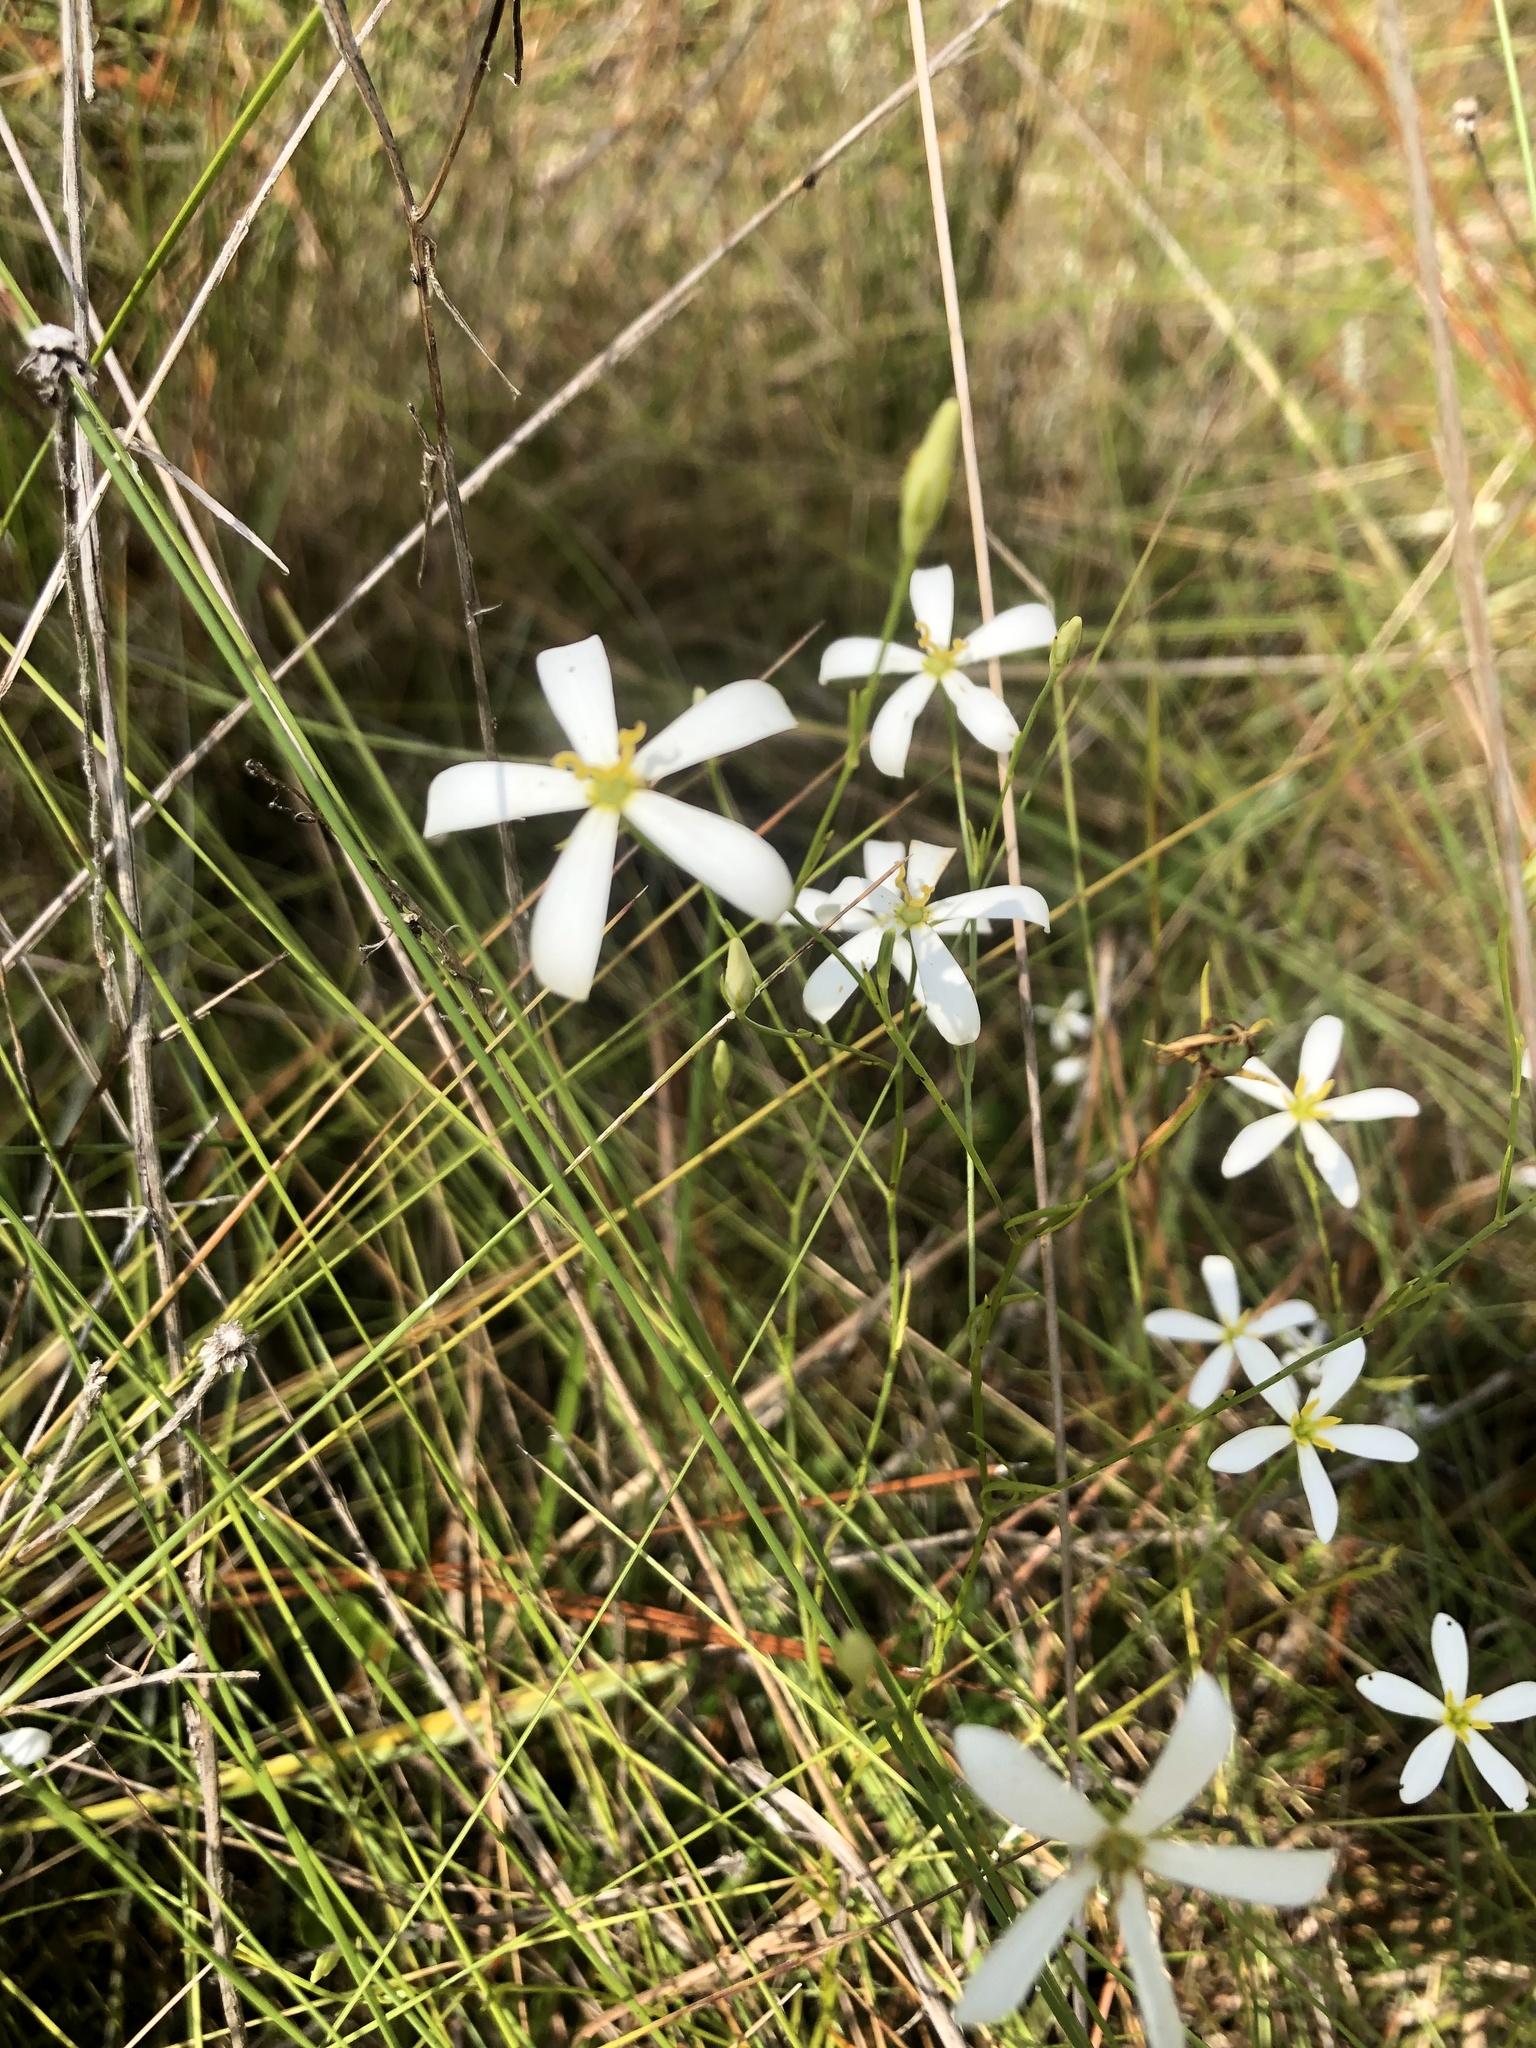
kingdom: Plantae
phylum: Tracheophyta
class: Magnoliopsida
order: Gentianales
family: Gentianaceae
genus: Sabatia
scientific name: Sabatia brevifolia
